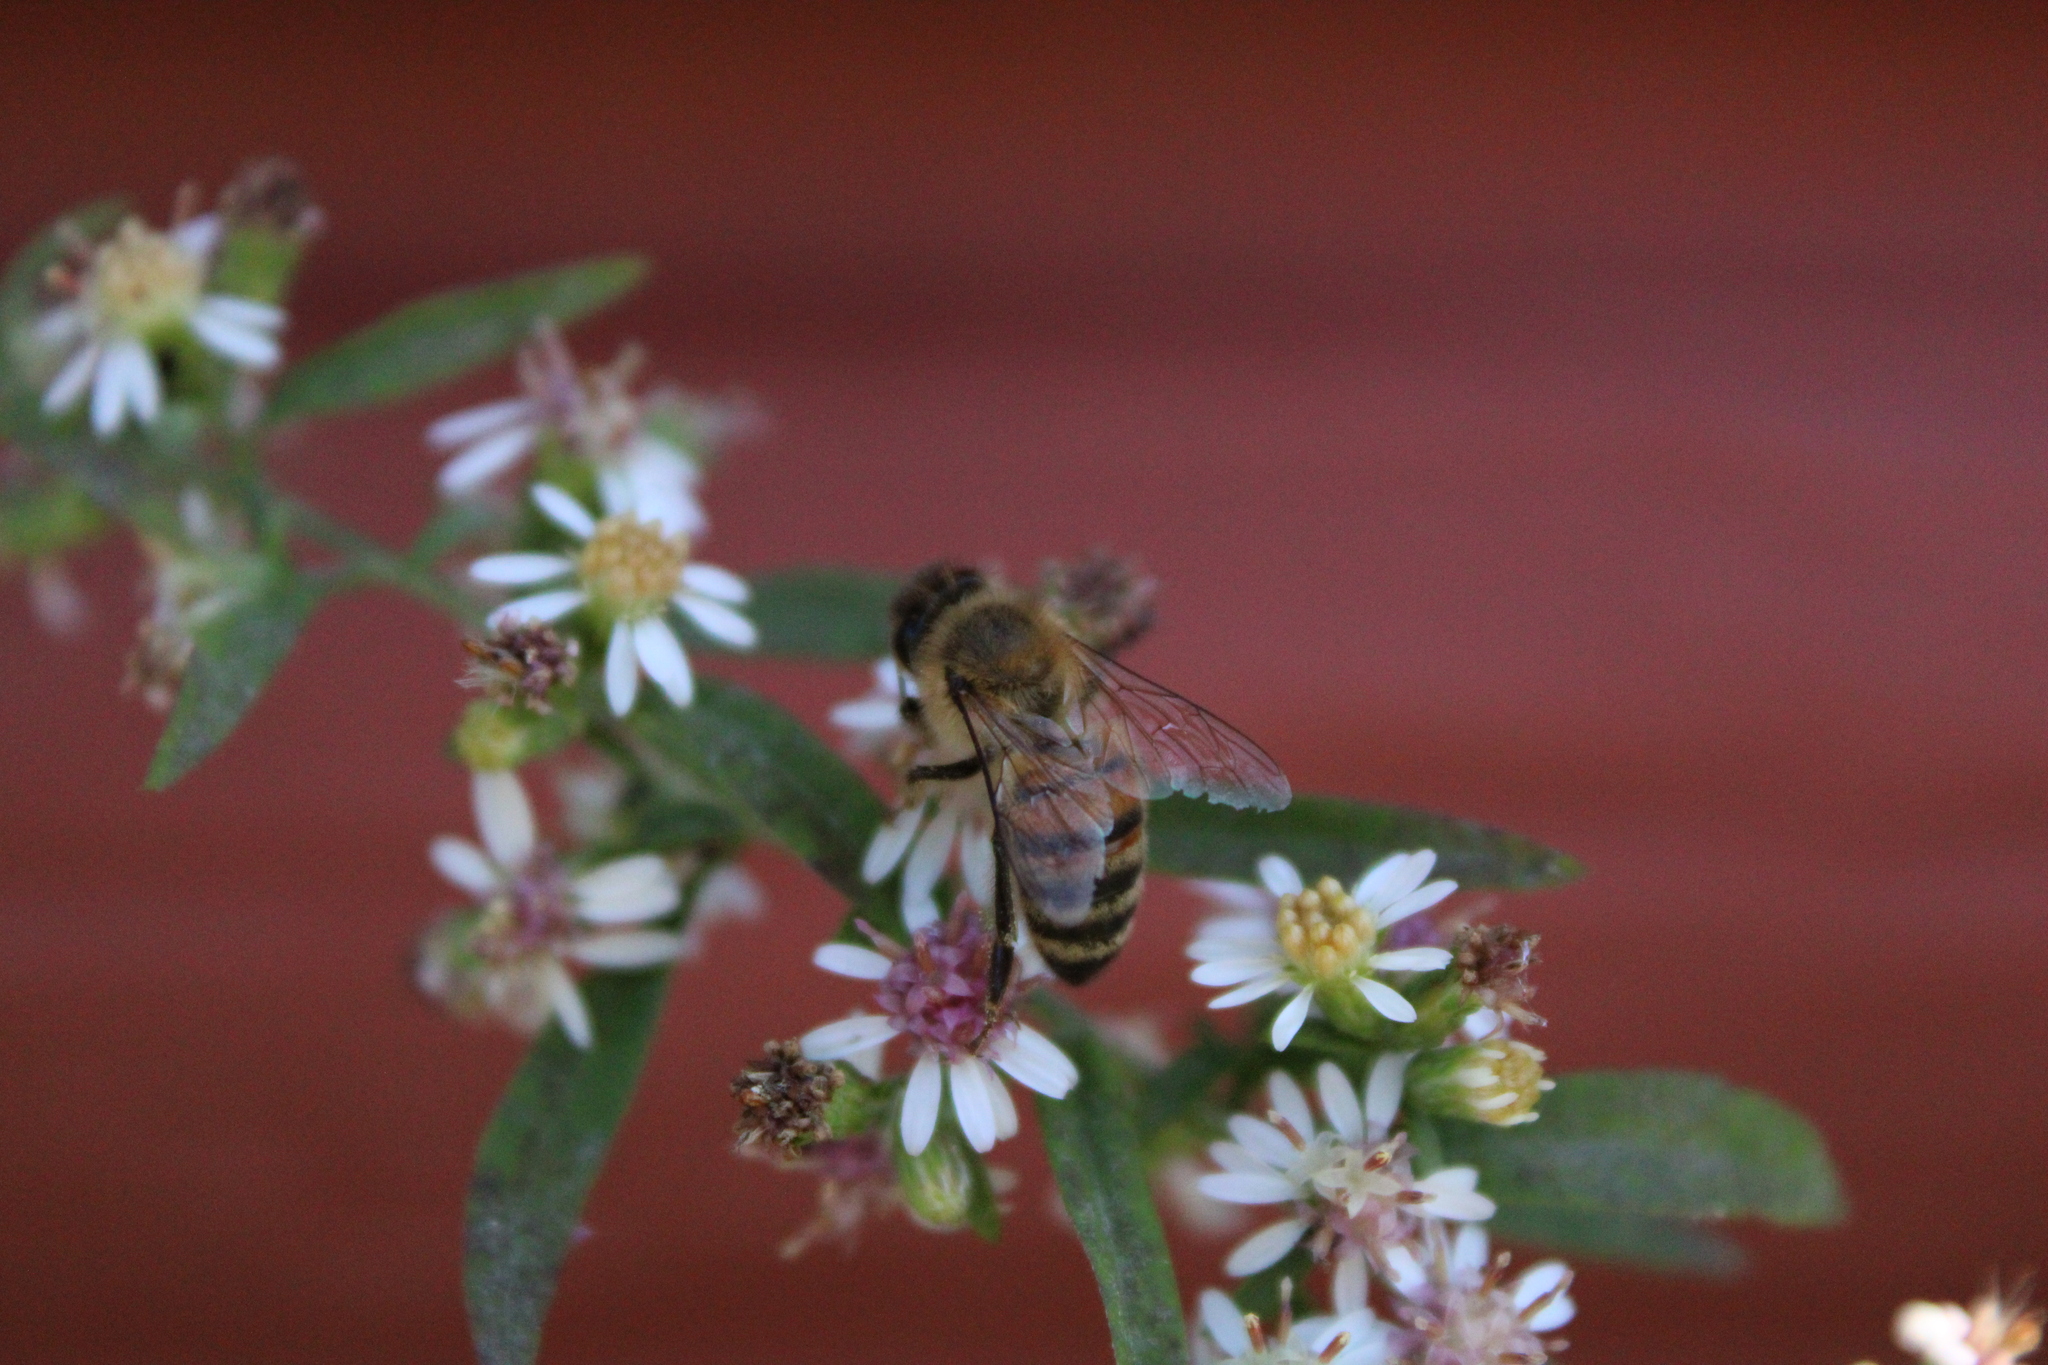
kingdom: Animalia
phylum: Arthropoda
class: Insecta
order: Hymenoptera
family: Apidae
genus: Apis
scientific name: Apis mellifera
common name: Honey bee
